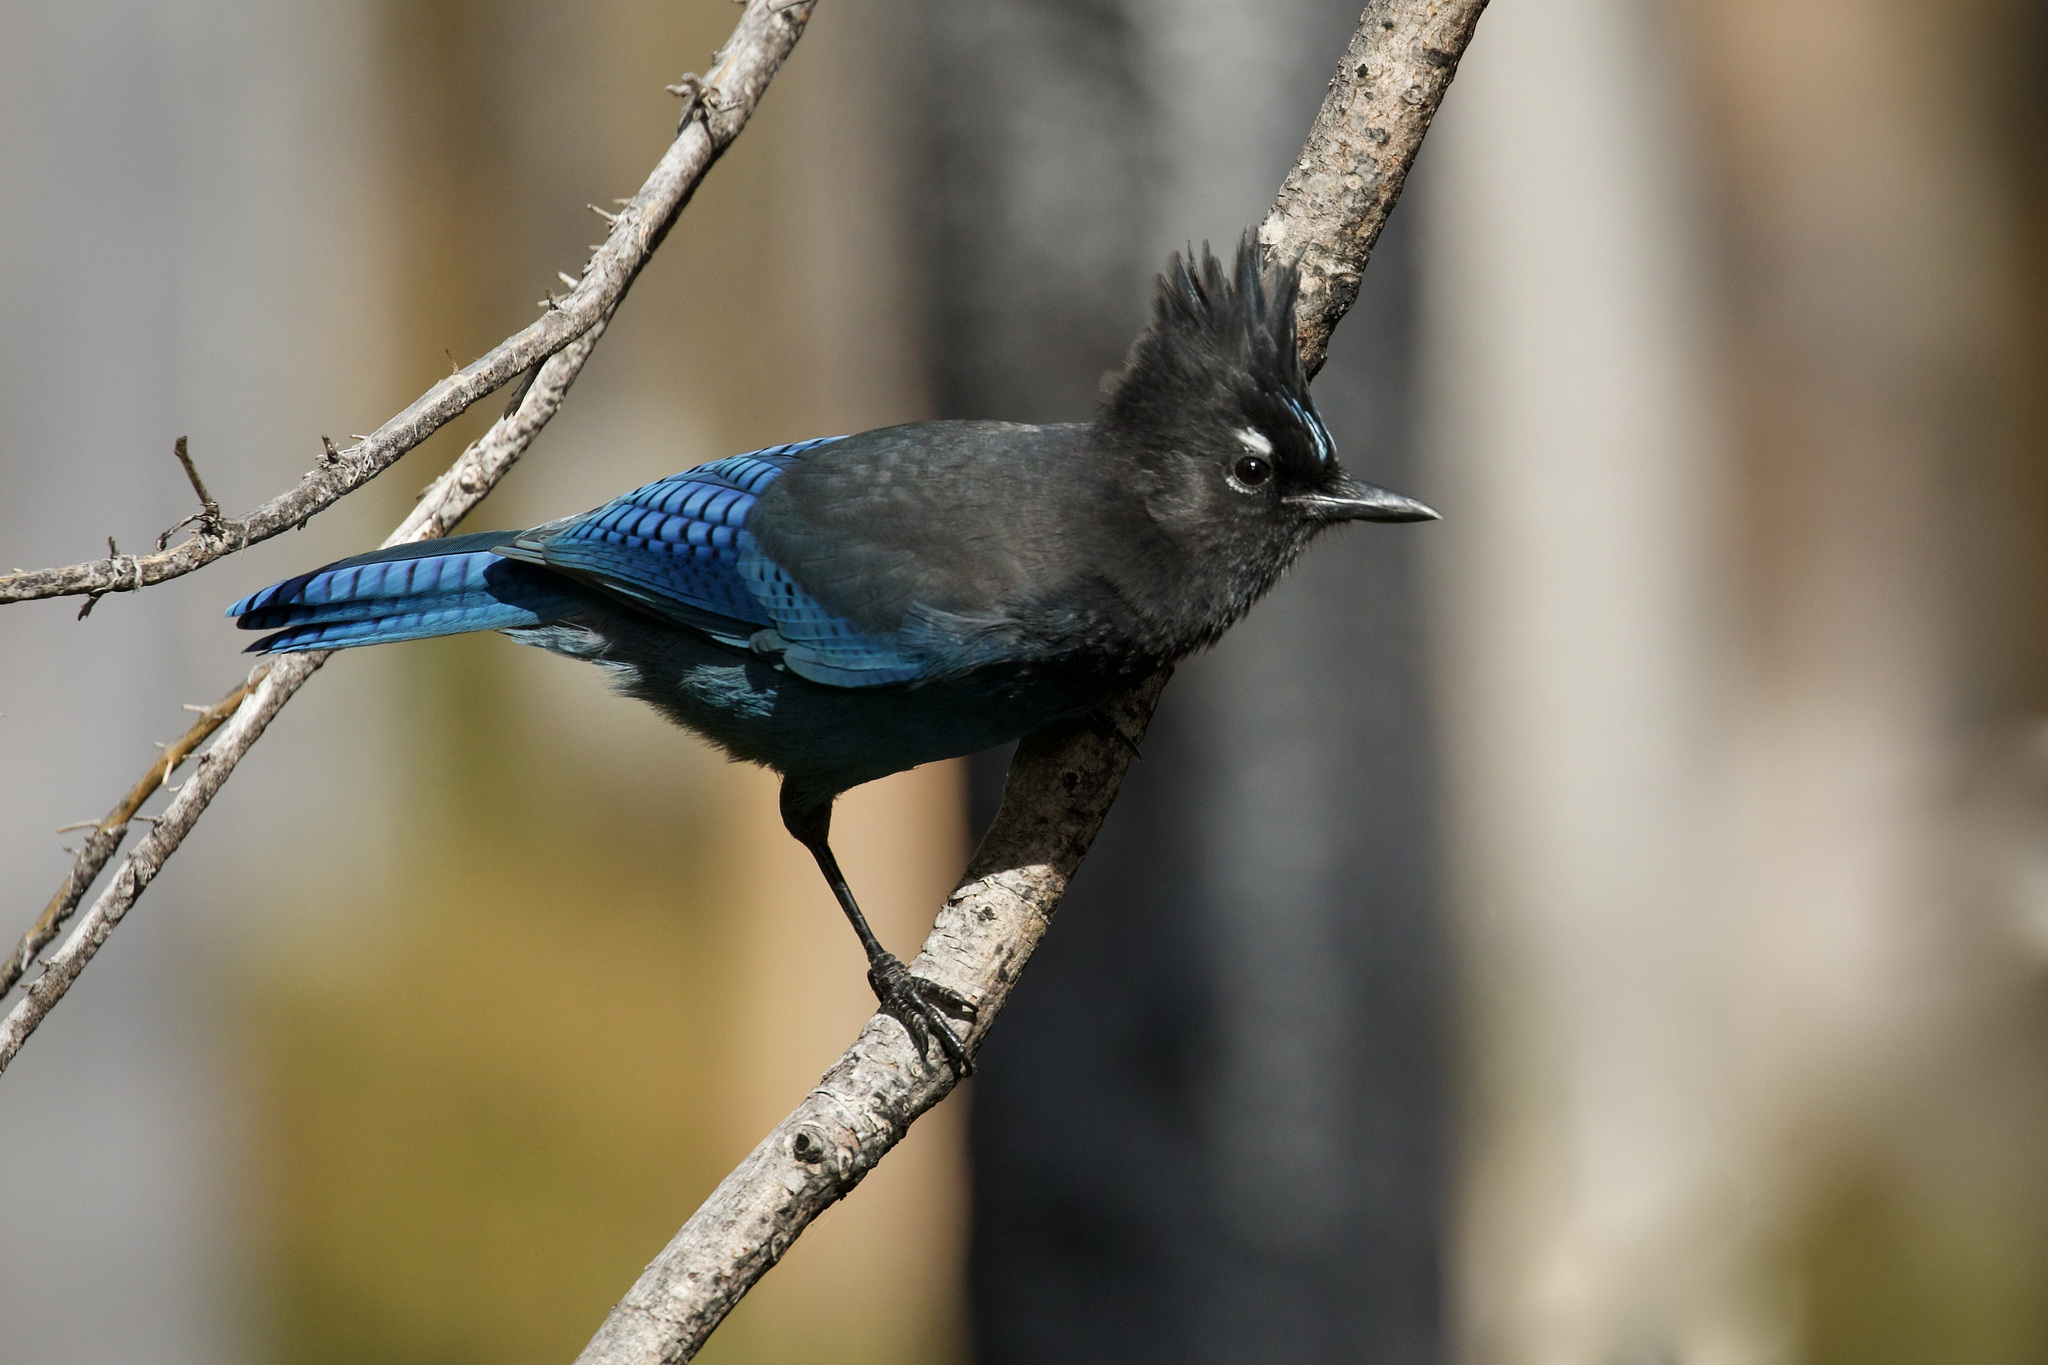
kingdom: Animalia
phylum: Chordata
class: Aves
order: Passeriformes
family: Corvidae
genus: Cyanocitta
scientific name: Cyanocitta stelleri
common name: Steller's jay
